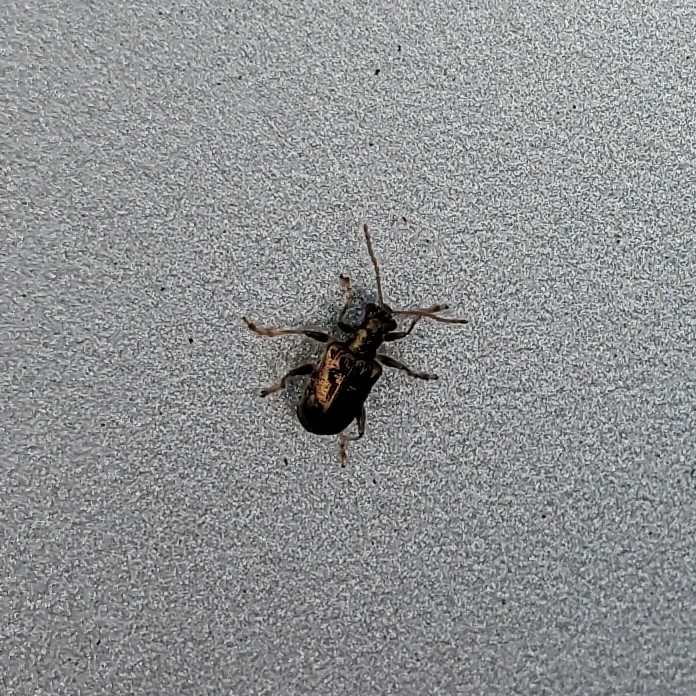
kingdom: Animalia
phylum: Arthropoda
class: Insecta
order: Coleoptera
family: Chrysomelidae
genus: Neolema
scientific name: Neolema ogloblini
